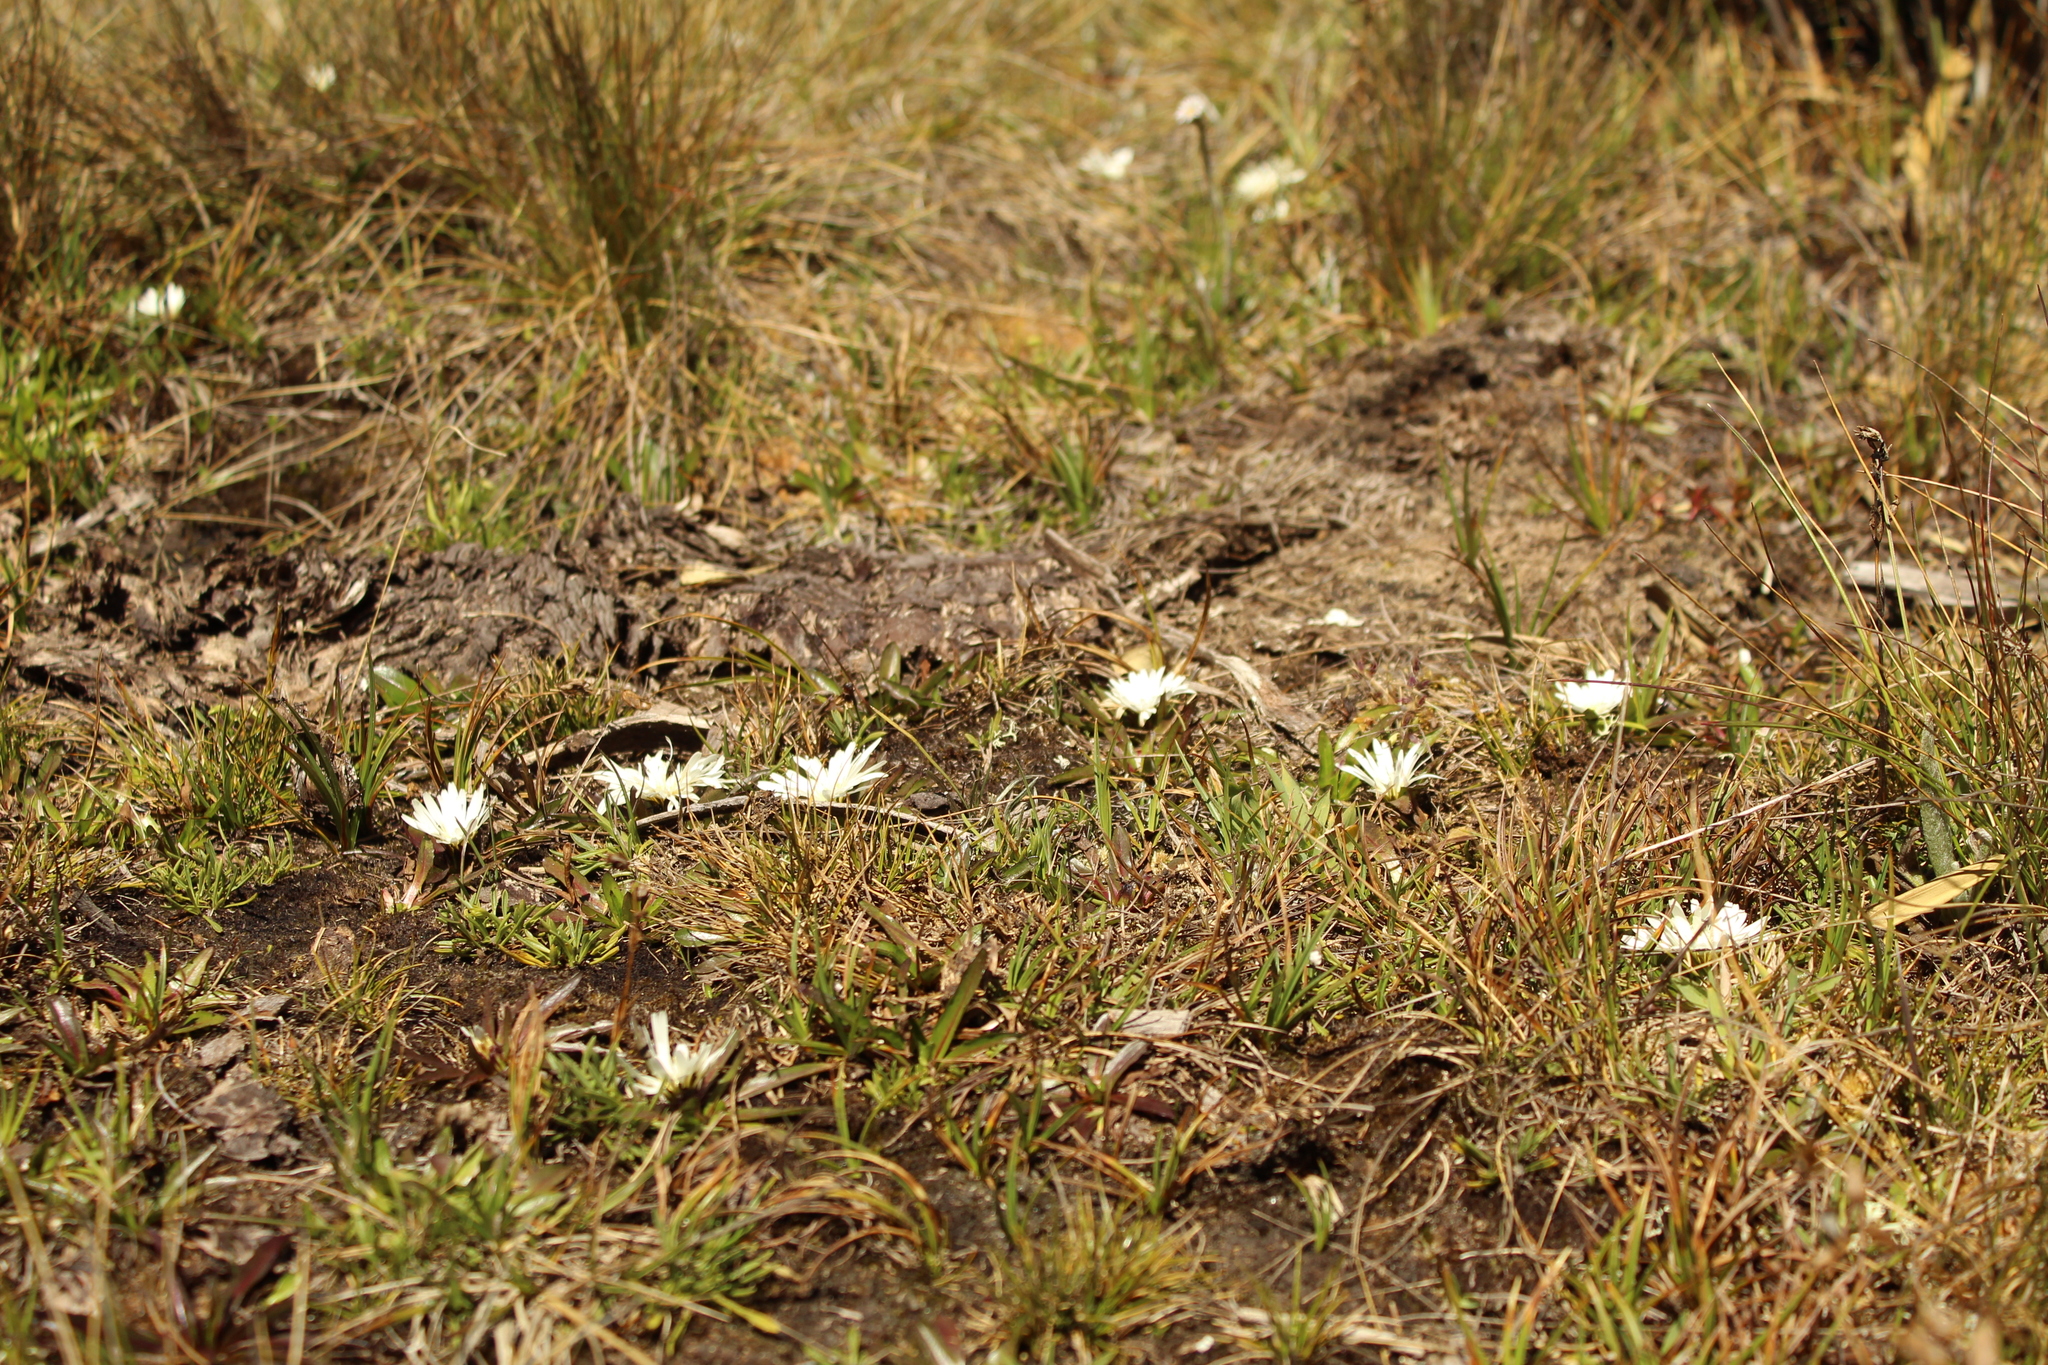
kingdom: Plantae
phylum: Tracheophyta
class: Magnoliopsida
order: Asterales
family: Asteraceae
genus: Hypochaeris
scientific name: Hypochaeris sessiliflora
